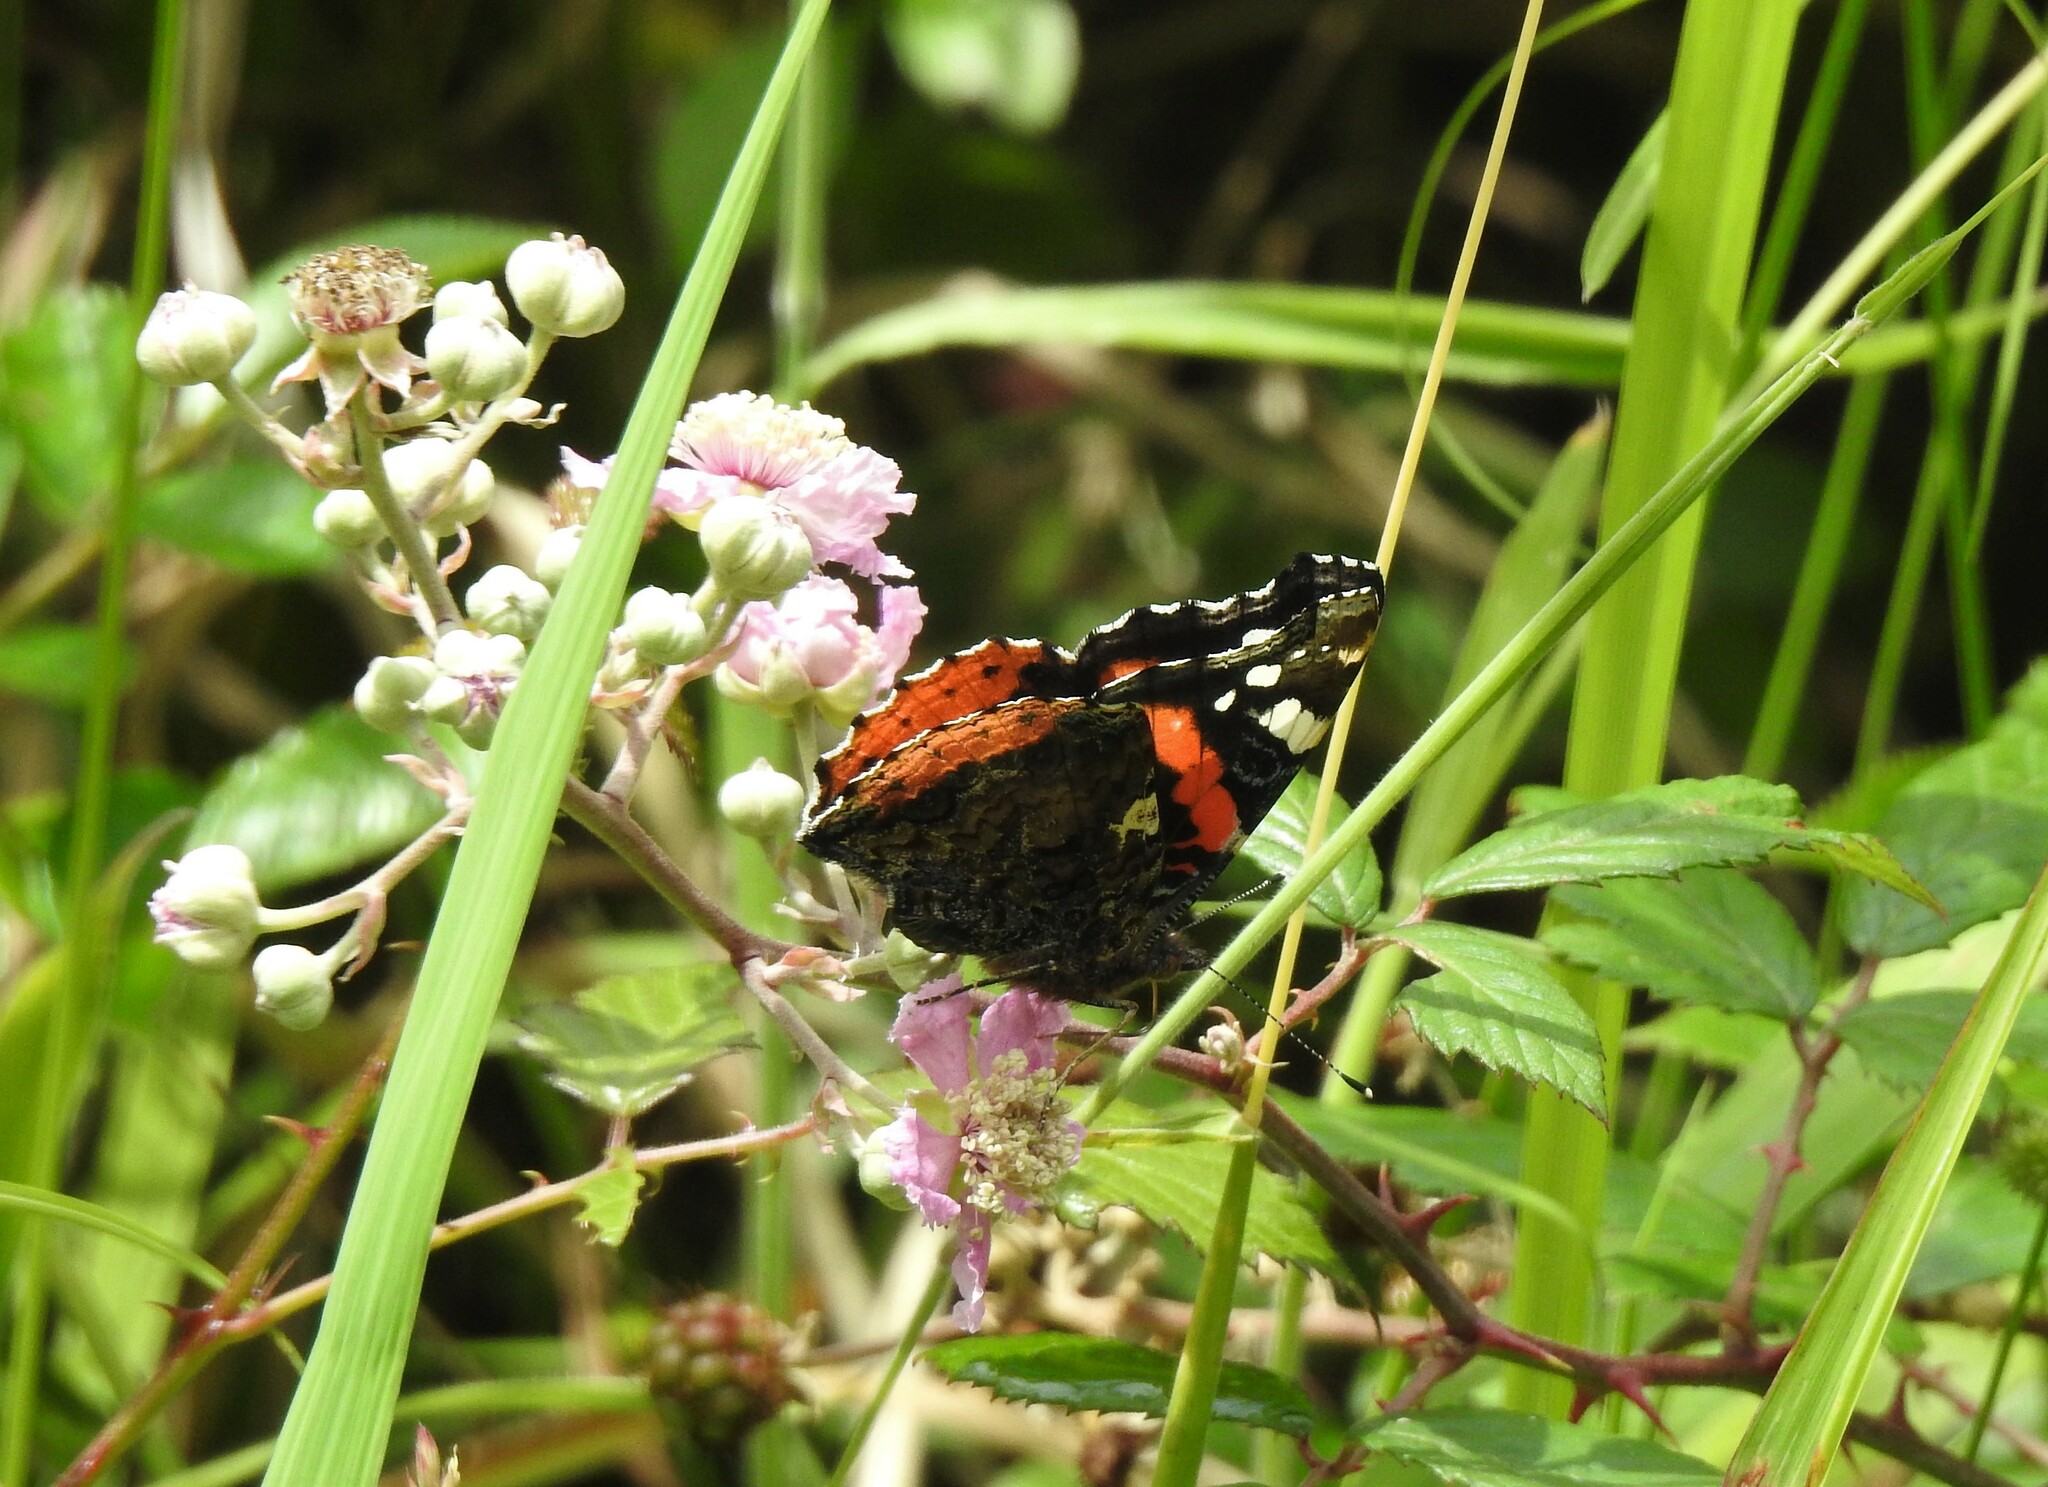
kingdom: Animalia
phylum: Arthropoda
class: Insecta
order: Lepidoptera
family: Nymphalidae
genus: Vanessa
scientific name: Vanessa atalanta
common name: Red admiral
